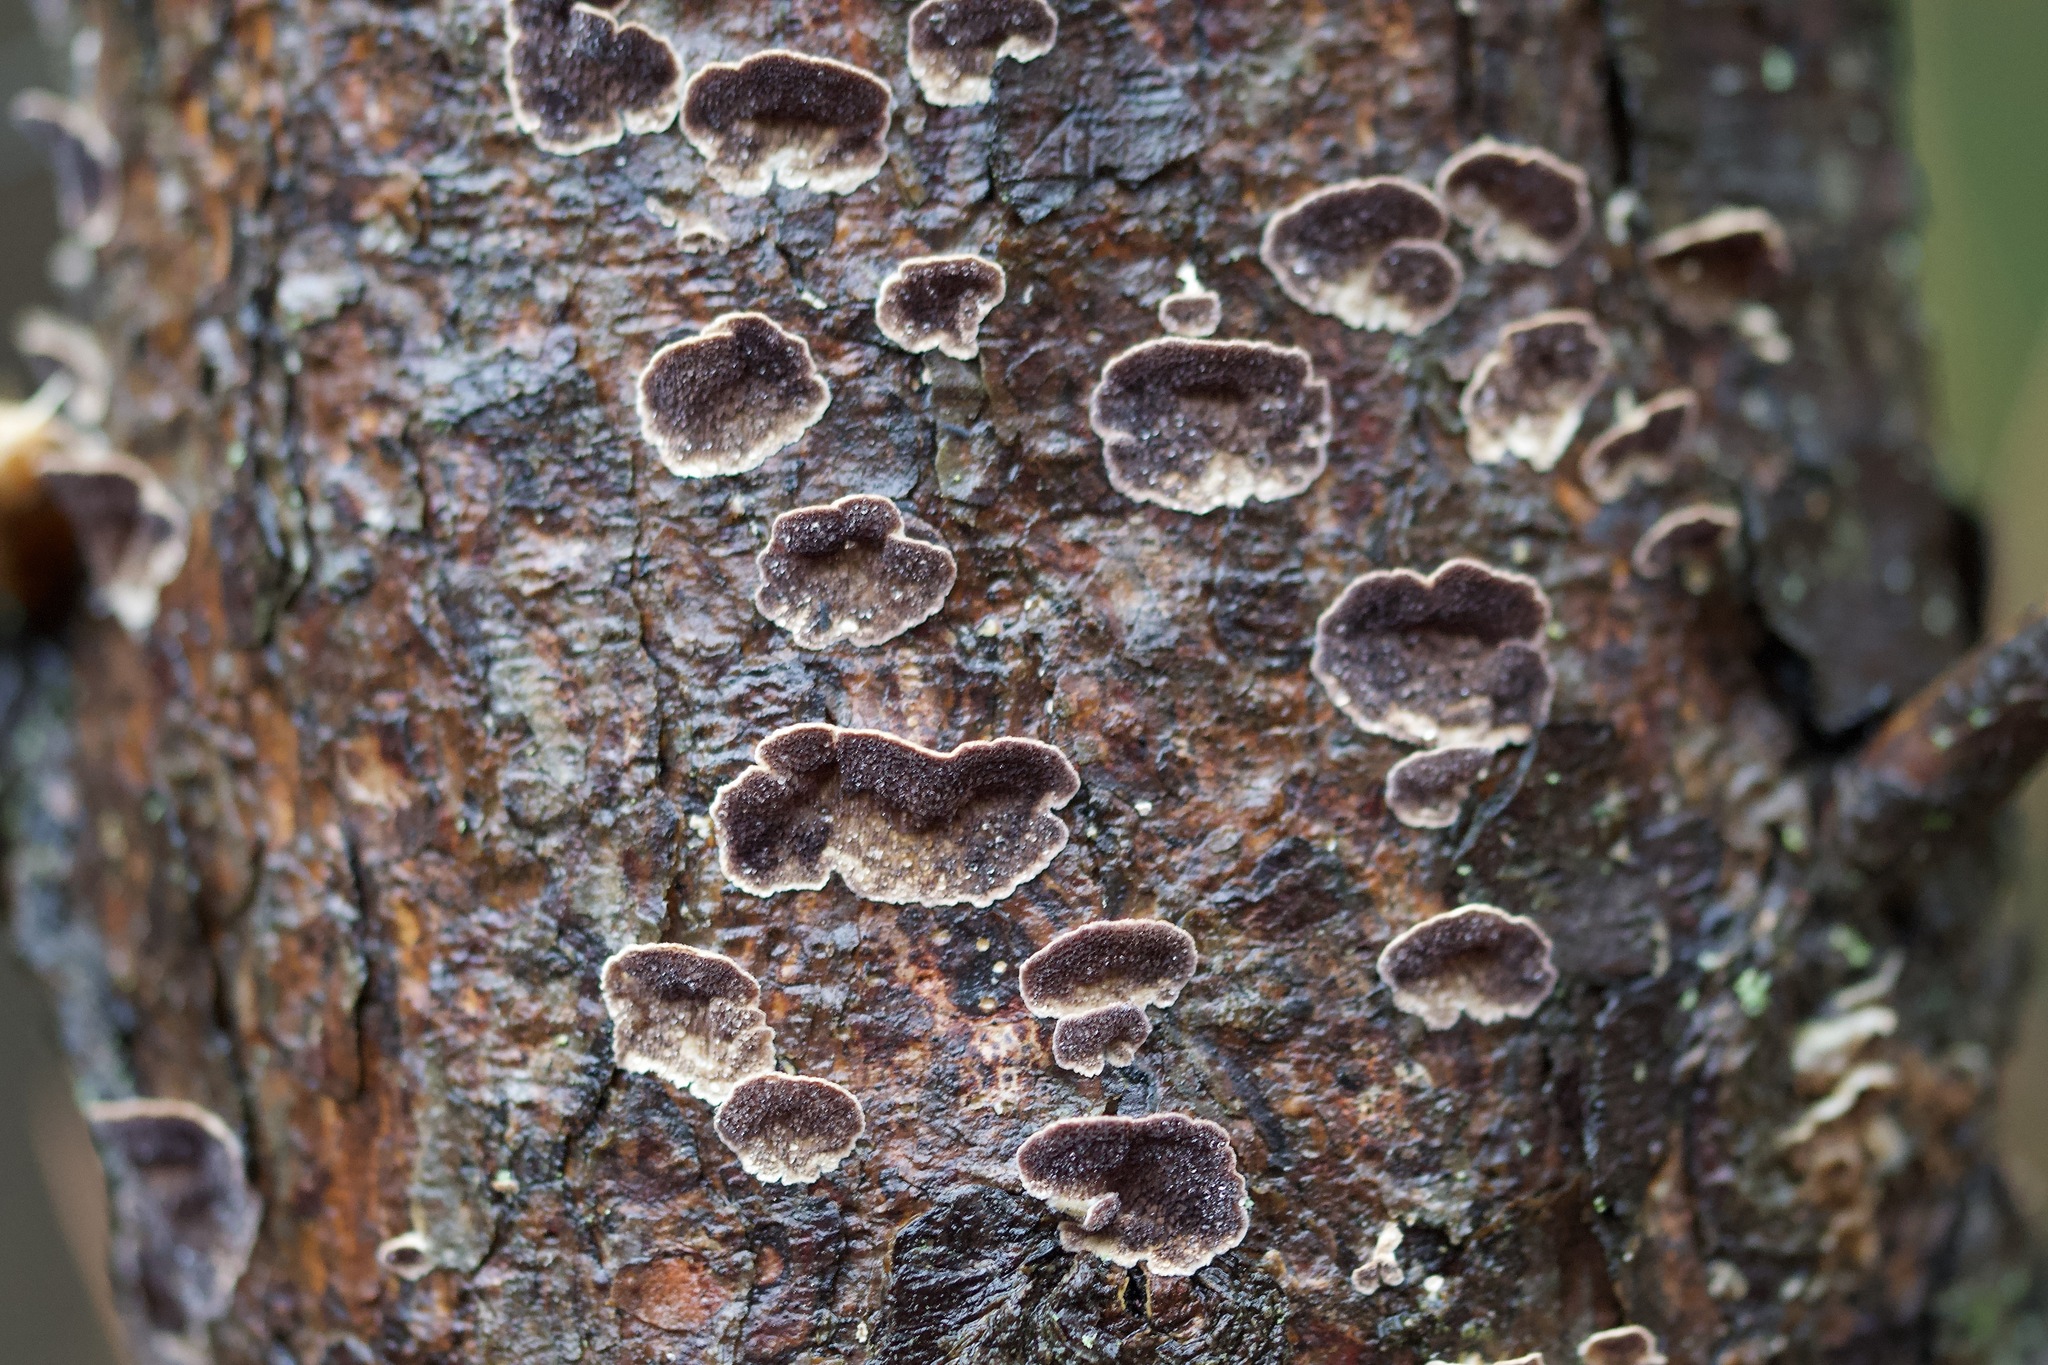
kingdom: Fungi
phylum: Basidiomycota
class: Agaricomycetes
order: Hymenochaetales
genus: Trichaptum
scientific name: Trichaptum abietinum
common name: Purplepore bracket
